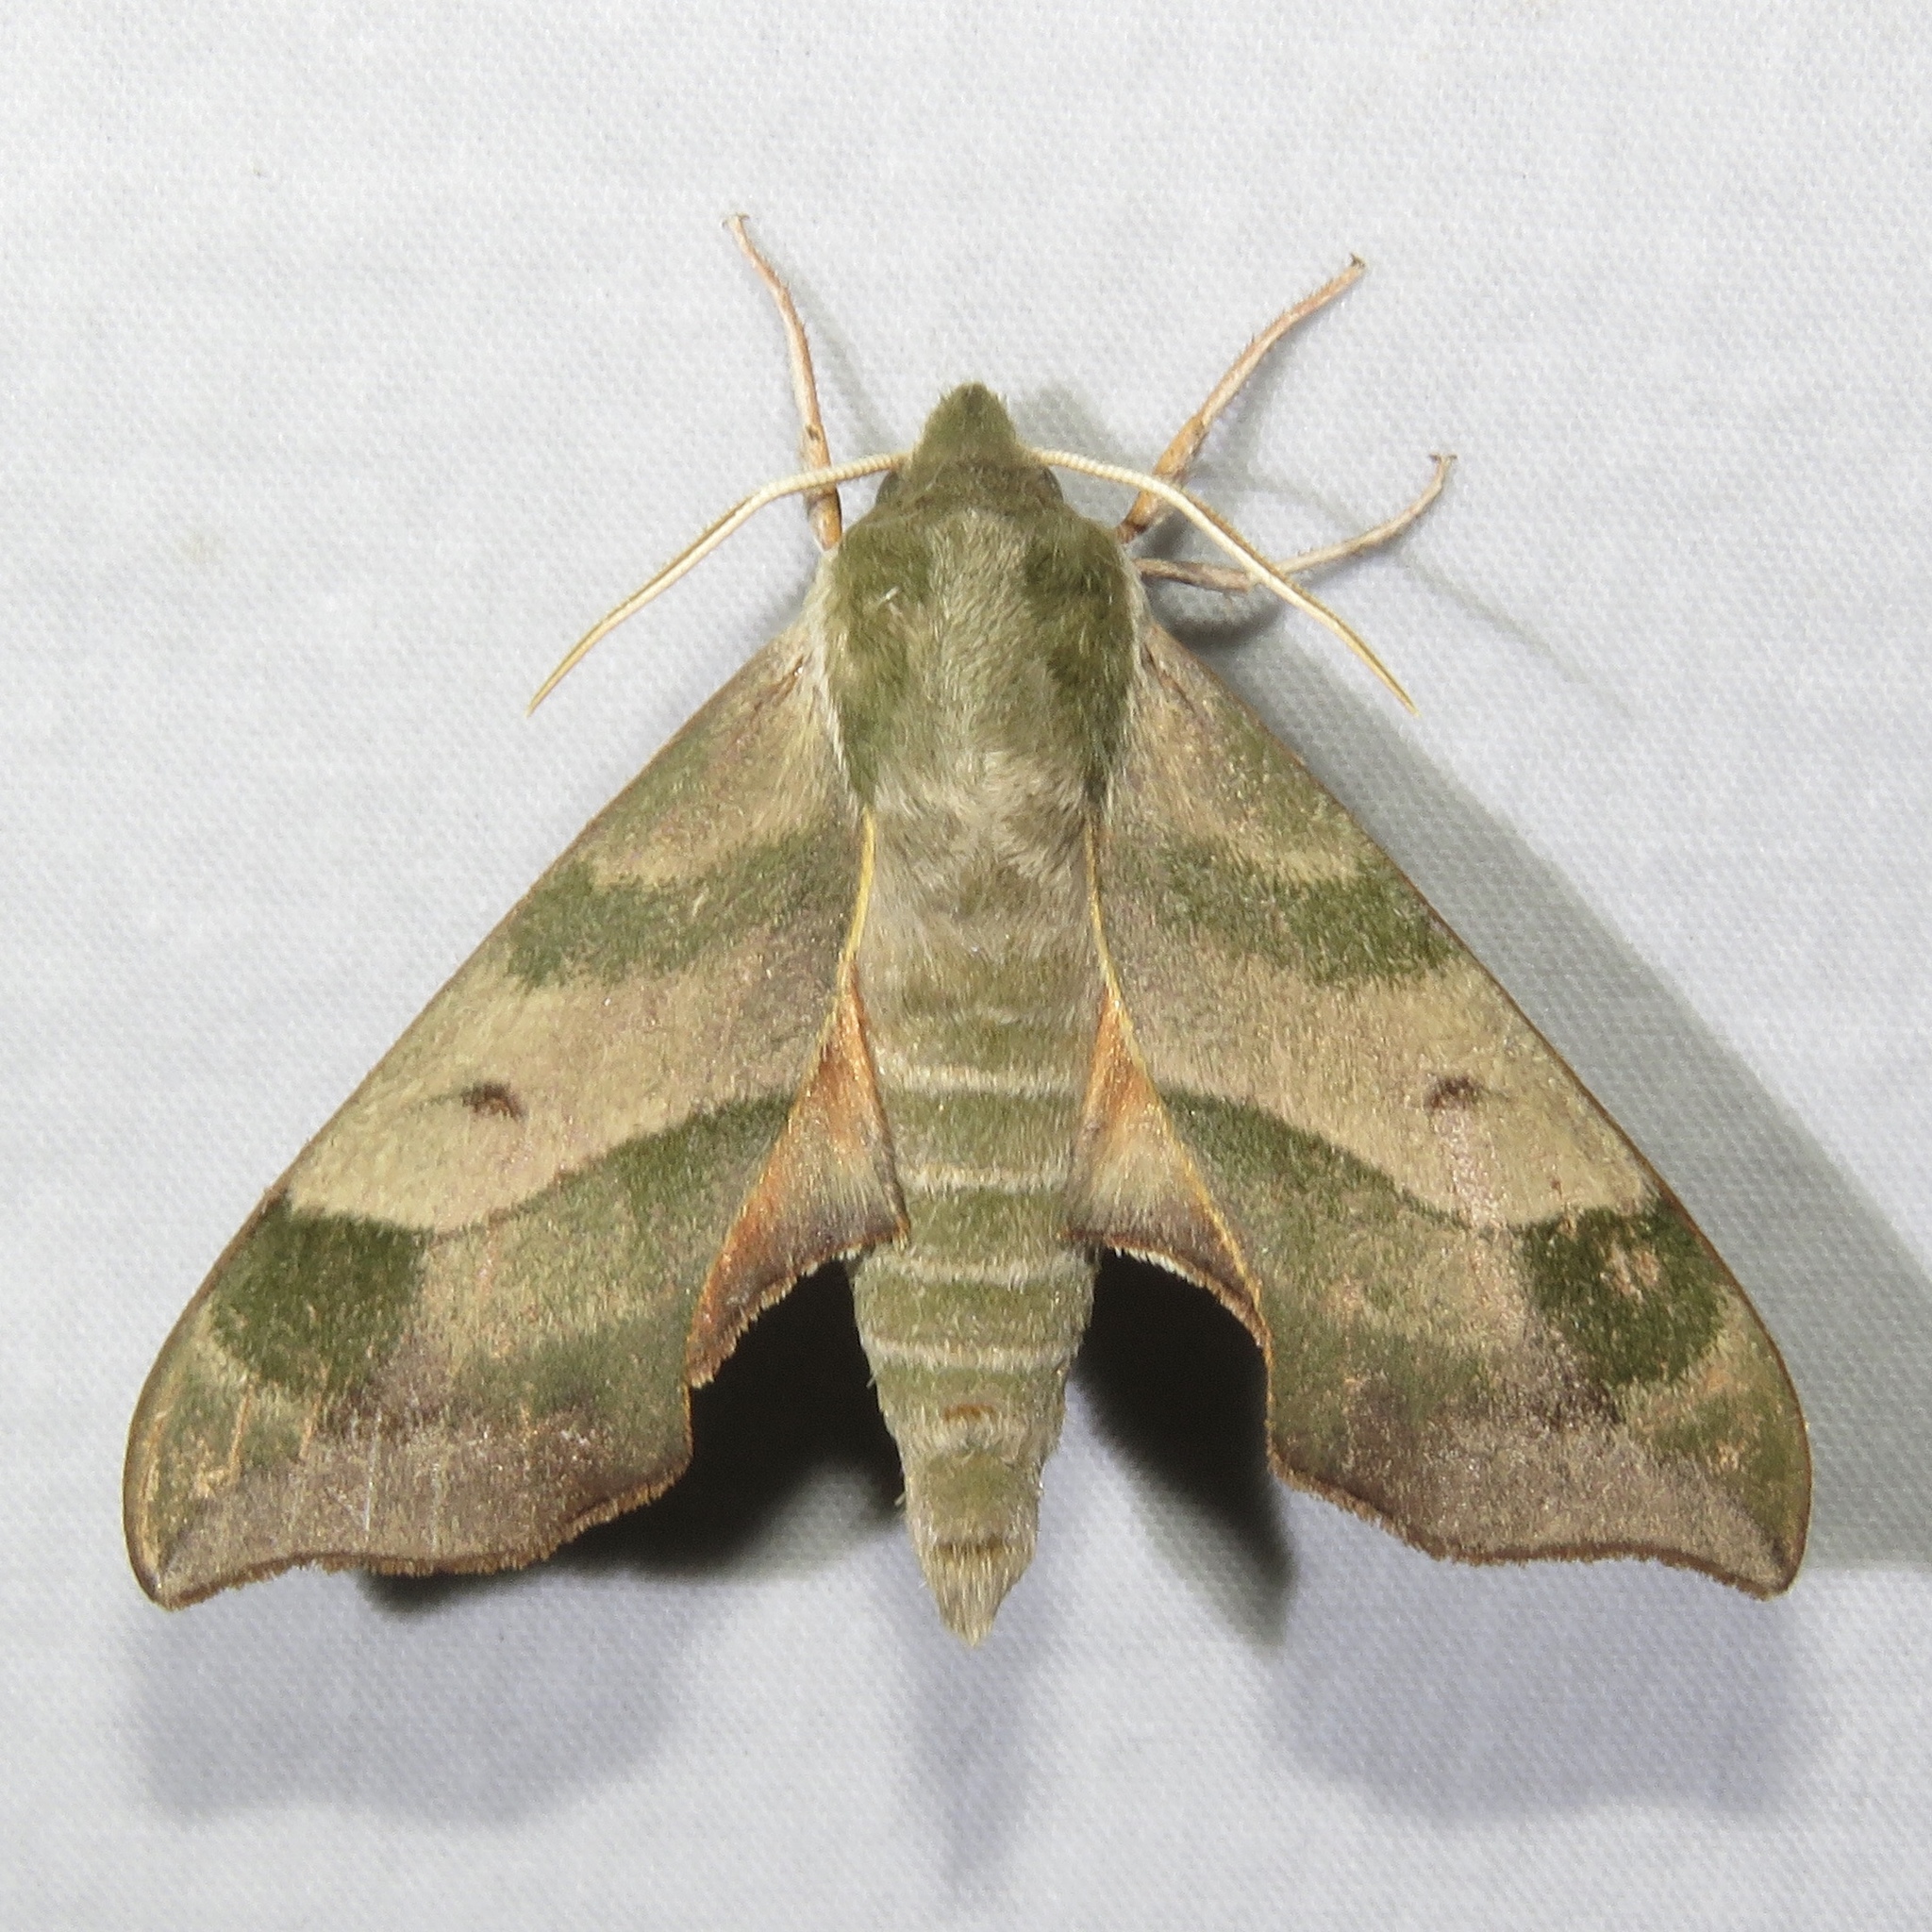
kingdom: Animalia
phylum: Arthropoda
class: Insecta
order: Lepidoptera
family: Sphingidae
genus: Darapsa
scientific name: Darapsa myron
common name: Hog sphinx
